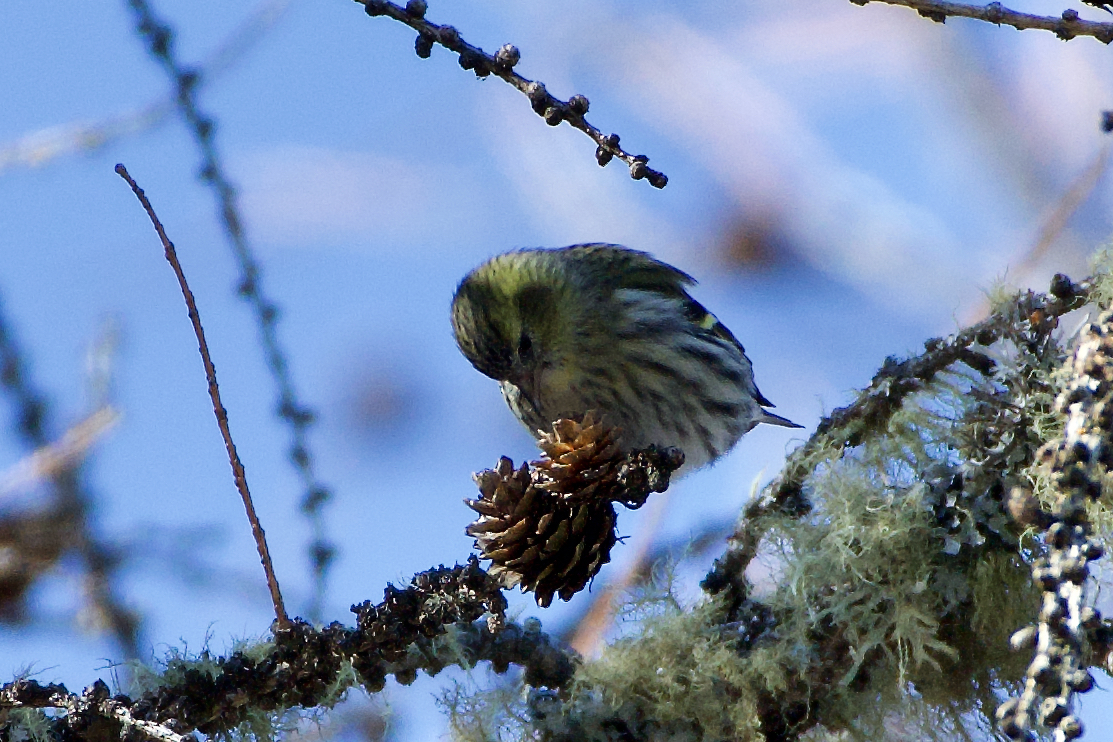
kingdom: Animalia
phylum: Chordata
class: Aves
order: Passeriformes
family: Fringillidae
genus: Spinus
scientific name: Spinus spinus
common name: Eurasian siskin
